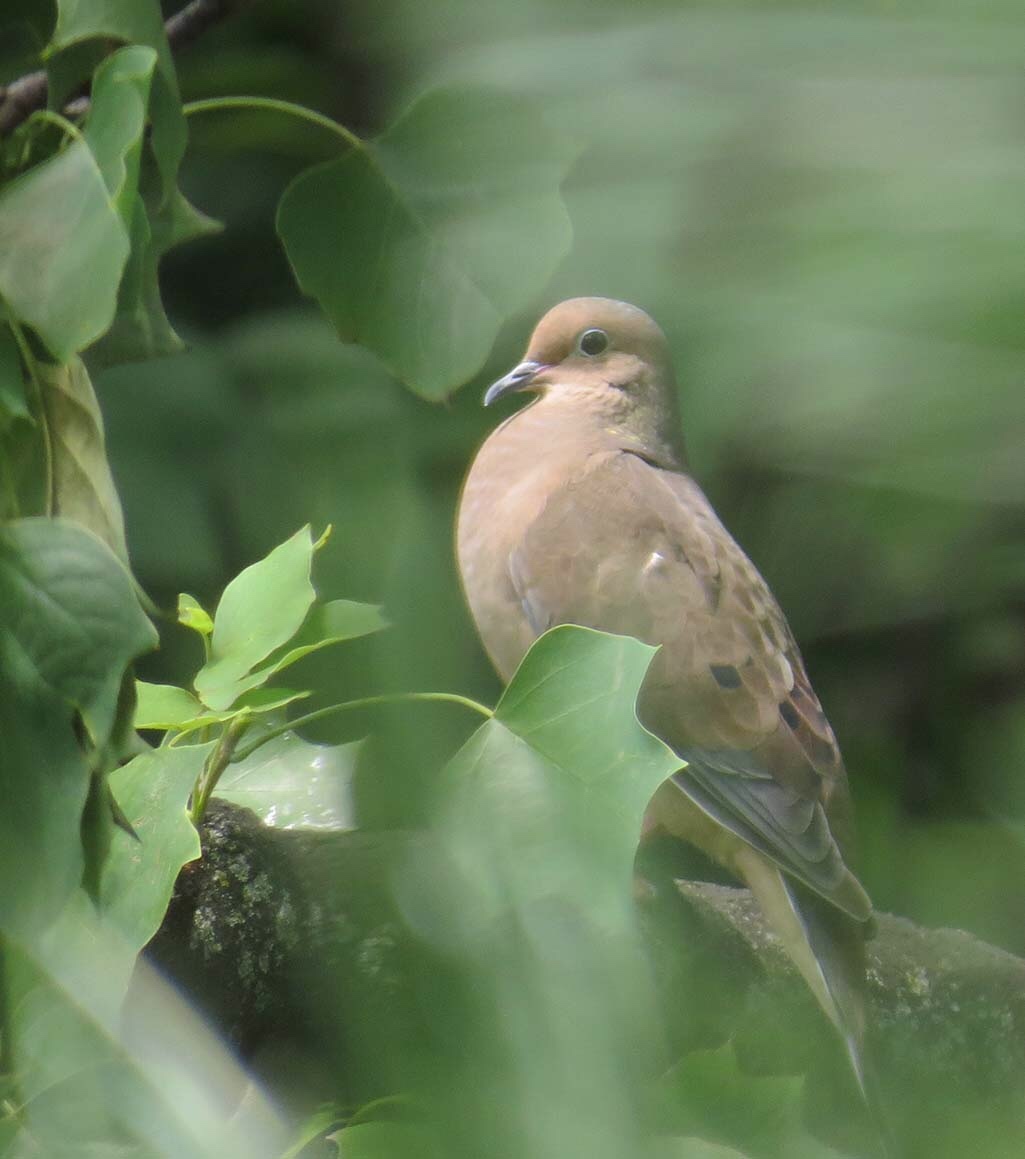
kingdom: Animalia
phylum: Chordata
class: Aves
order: Columbiformes
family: Columbidae
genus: Zenaida
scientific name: Zenaida macroura
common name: Mourning dove
